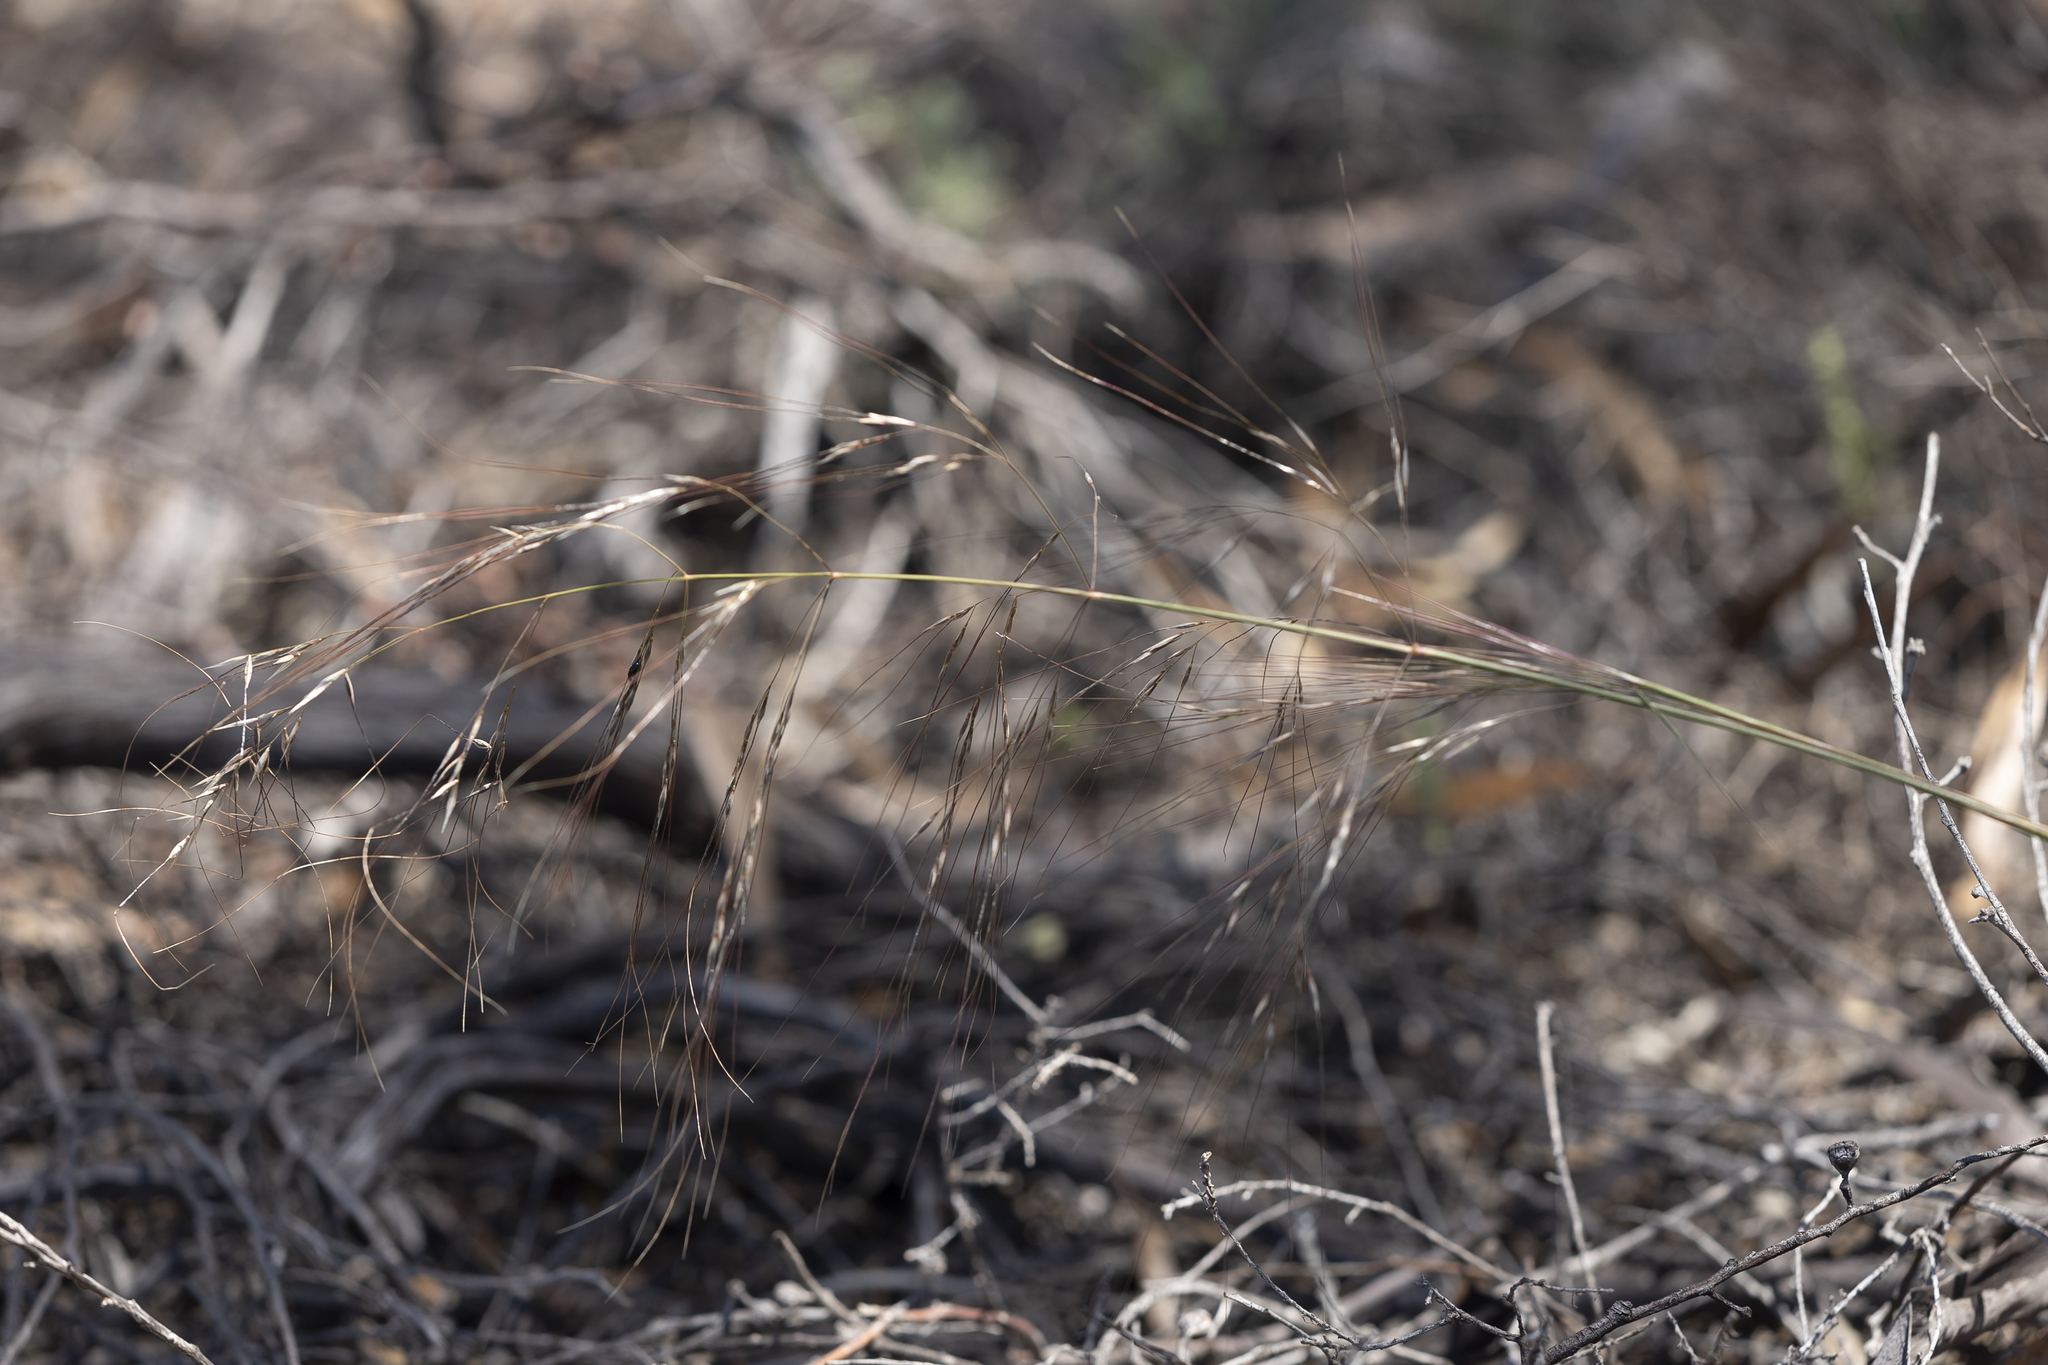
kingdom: Plantae
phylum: Tracheophyta
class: Liliopsida
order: Poales
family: Poaceae
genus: Austrostipa
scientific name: Austrostipa acrociliata
